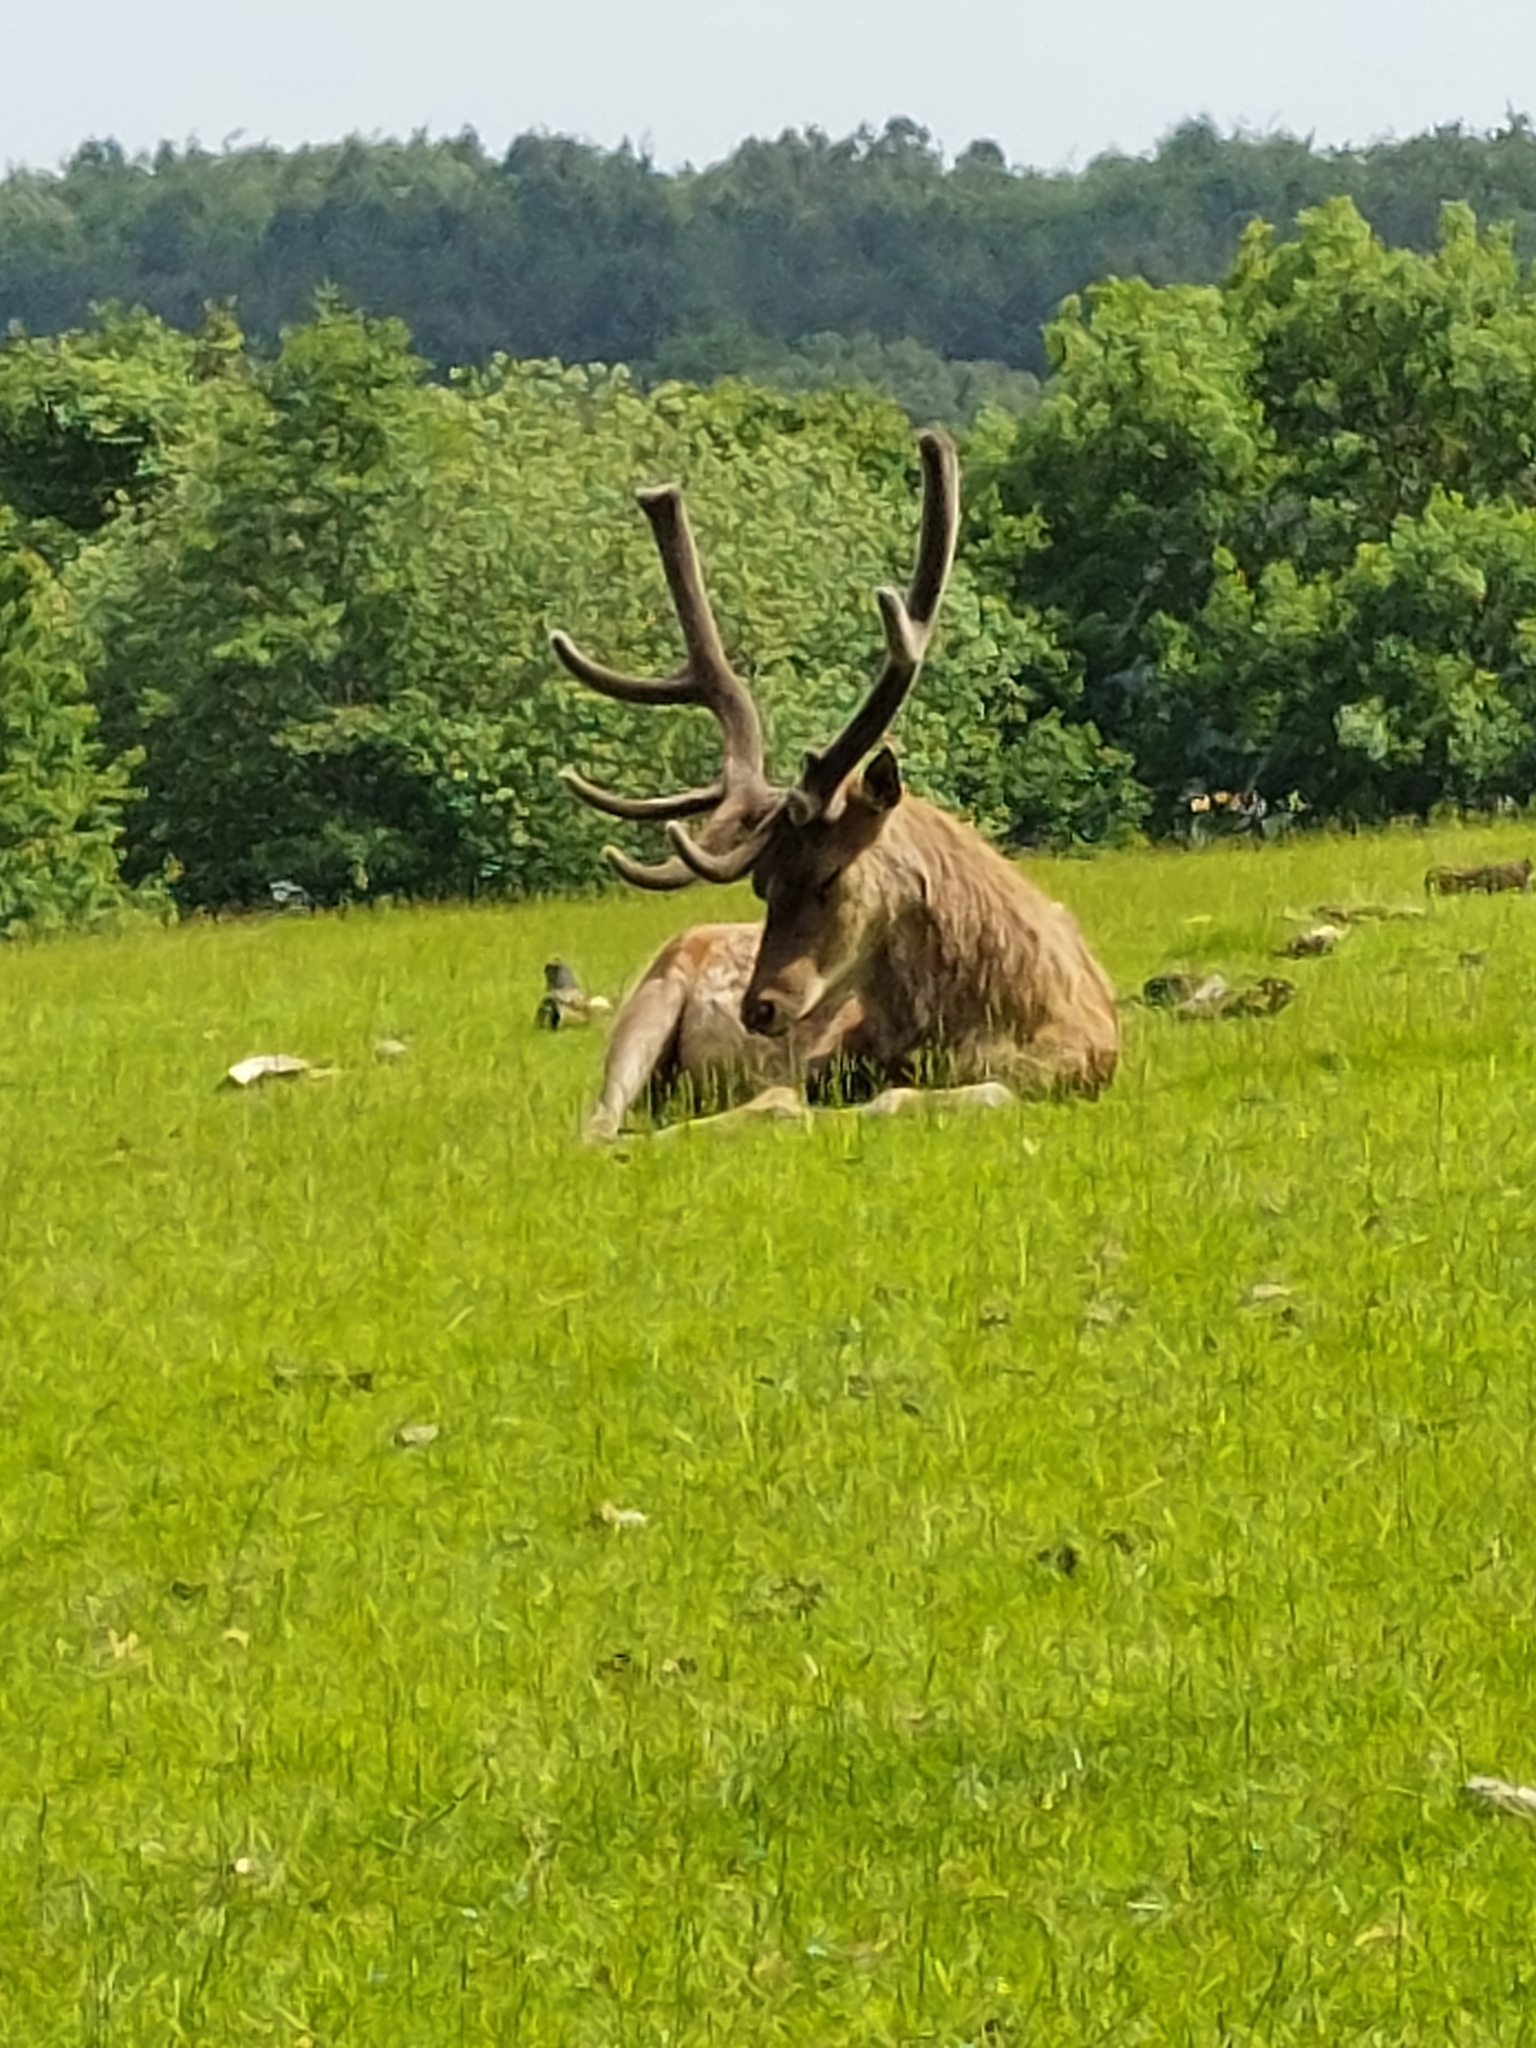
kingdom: Animalia
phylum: Chordata
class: Mammalia
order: Artiodactyla
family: Cervidae
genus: Cervus
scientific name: Cervus elaphus
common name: Red deer
